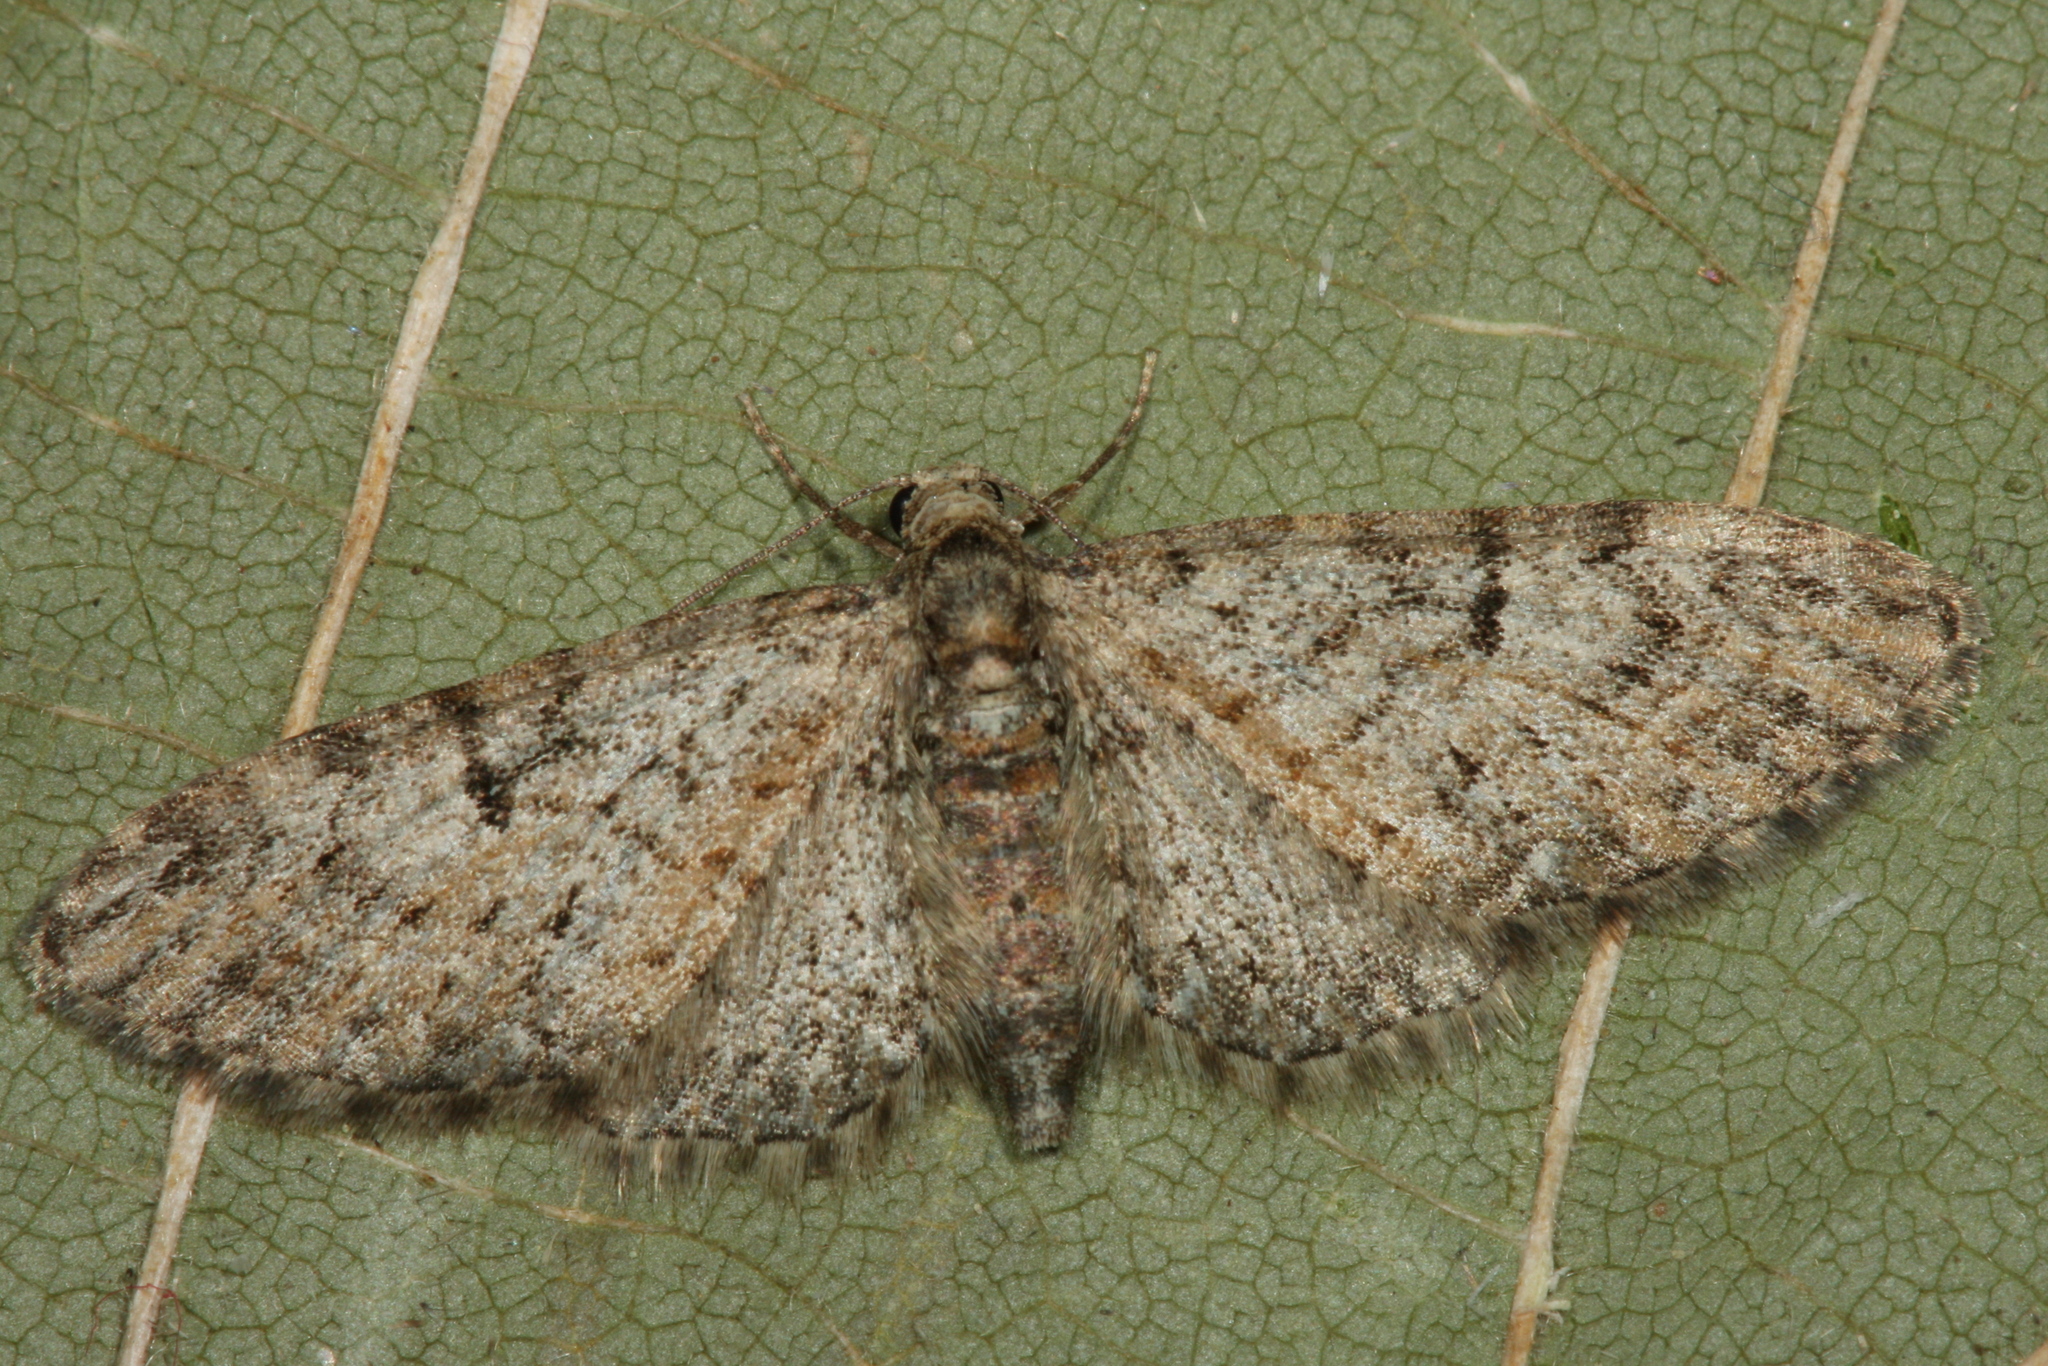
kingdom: Animalia
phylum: Arthropoda
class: Insecta
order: Lepidoptera
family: Geometridae
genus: Eupithecia
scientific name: Eupithecia dodoneata
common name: Oak-tree pug
